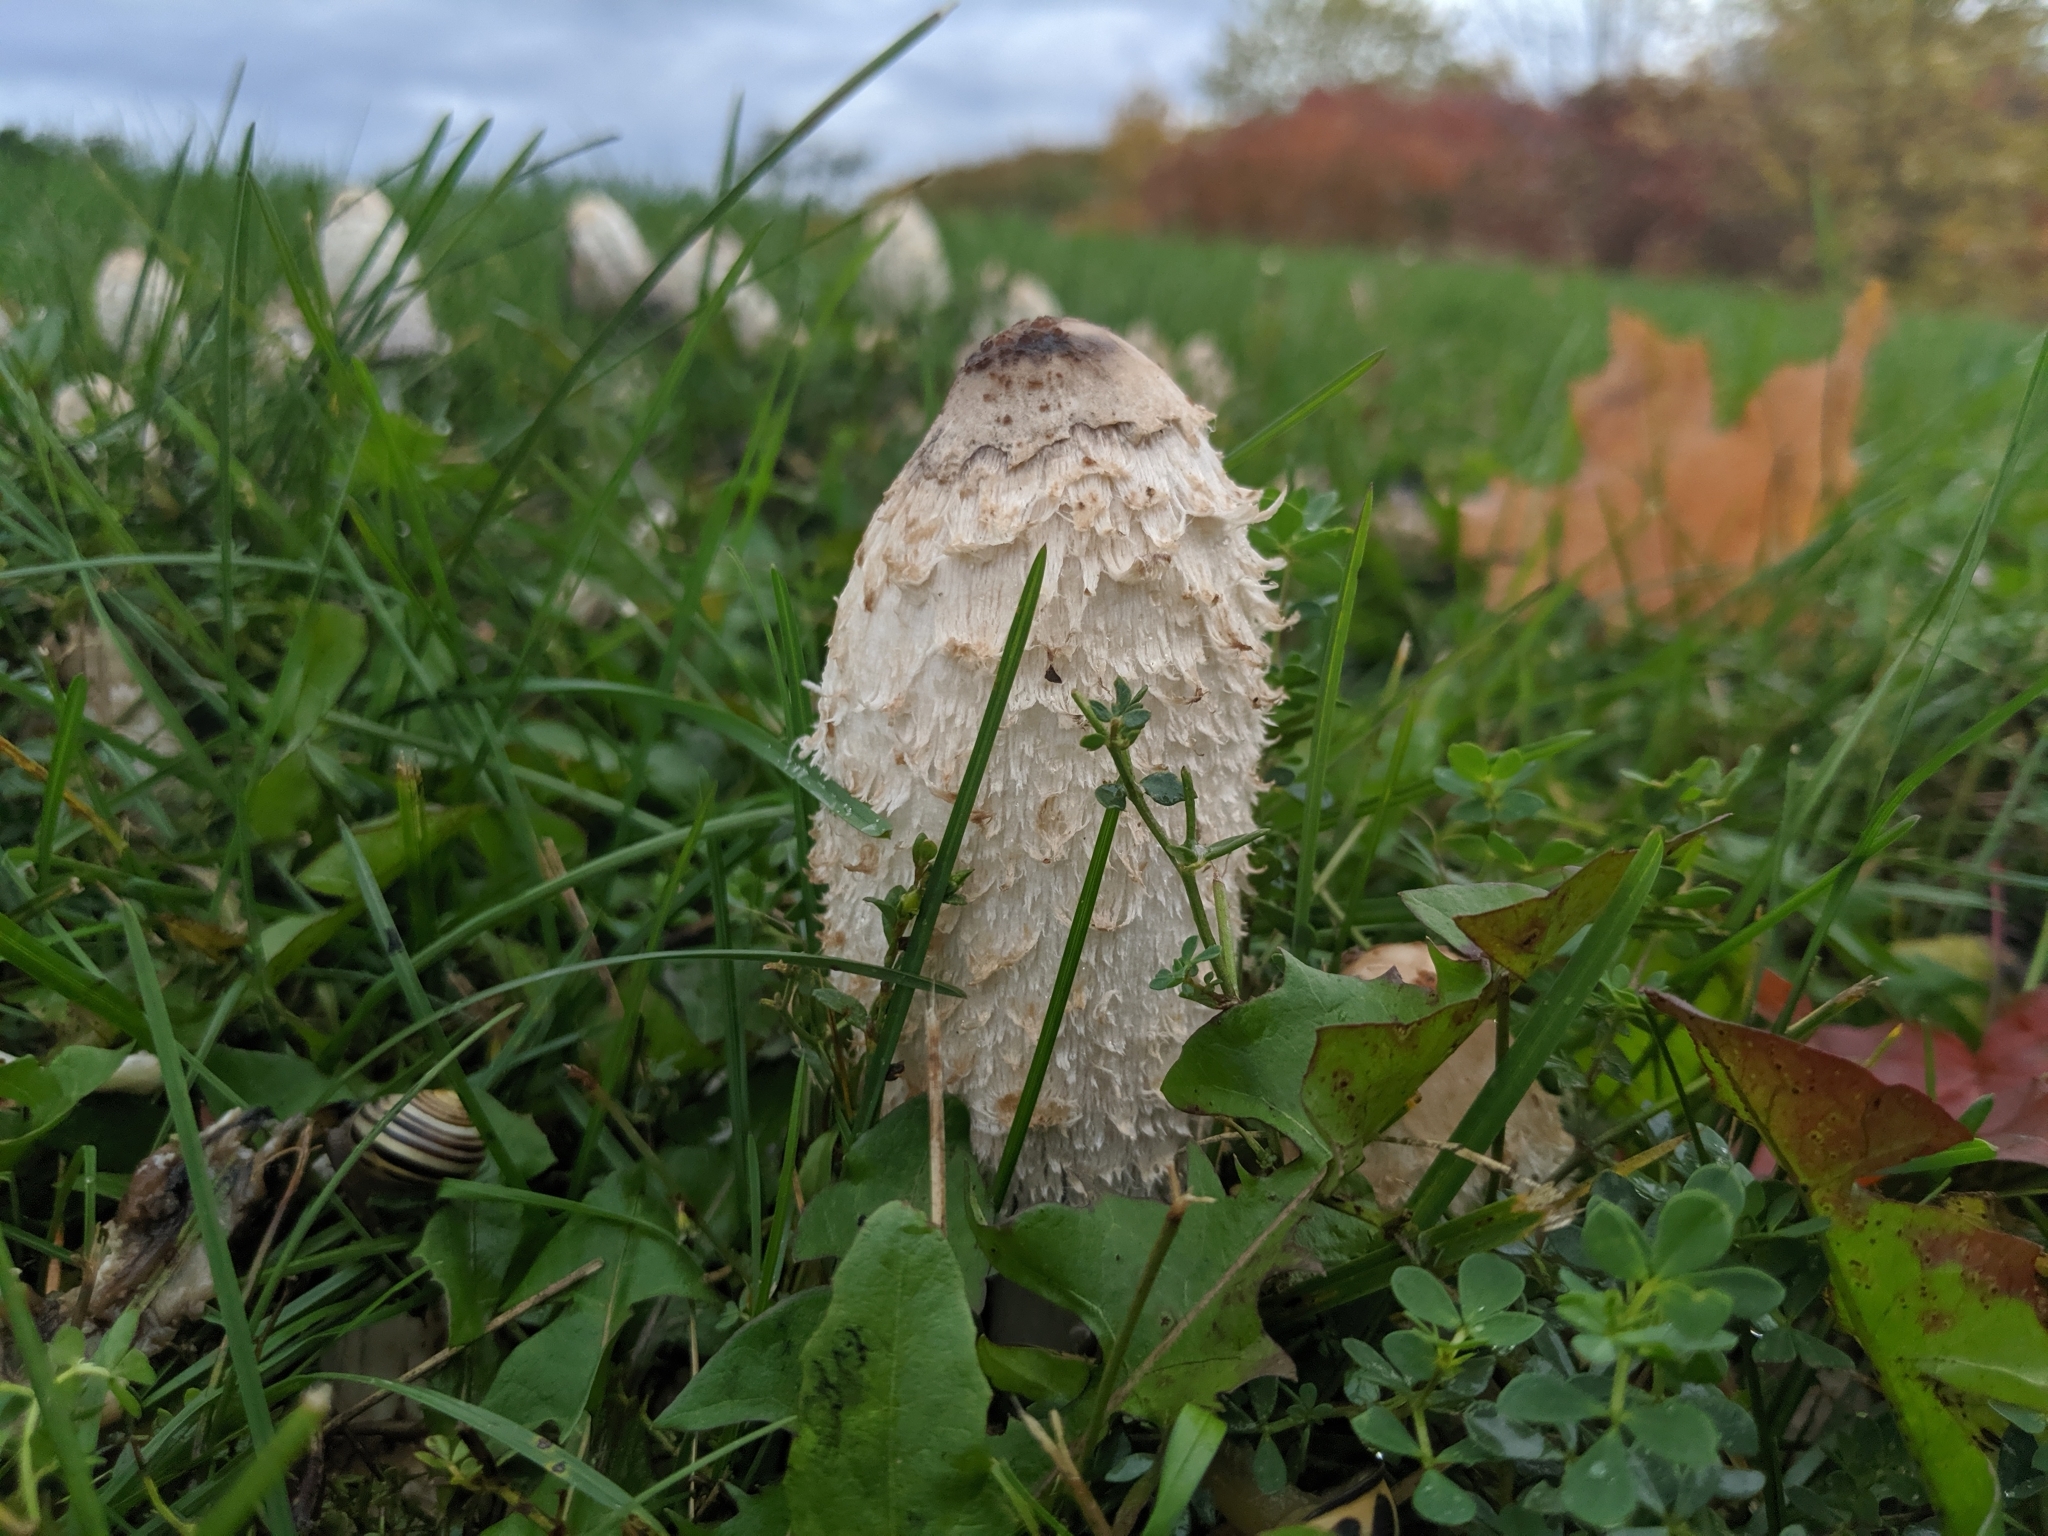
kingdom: Fungi
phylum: Basidiomycota
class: Agaricomycetes
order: Agaricales
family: Agaricaceae
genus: Coprinus
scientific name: Coprinus comatus
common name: Lawyer's wig
